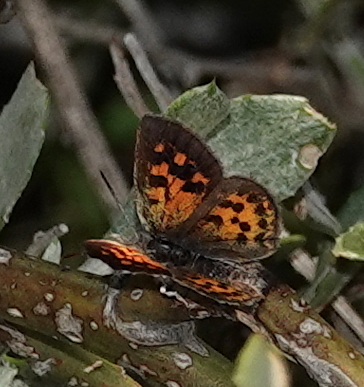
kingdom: Animalia
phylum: Arthropoda
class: Insecta
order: Lepidoptera
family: Lycaenidae
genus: Chrysoritis
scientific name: Chrysoritis zonarius
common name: Donkey daisy copper
